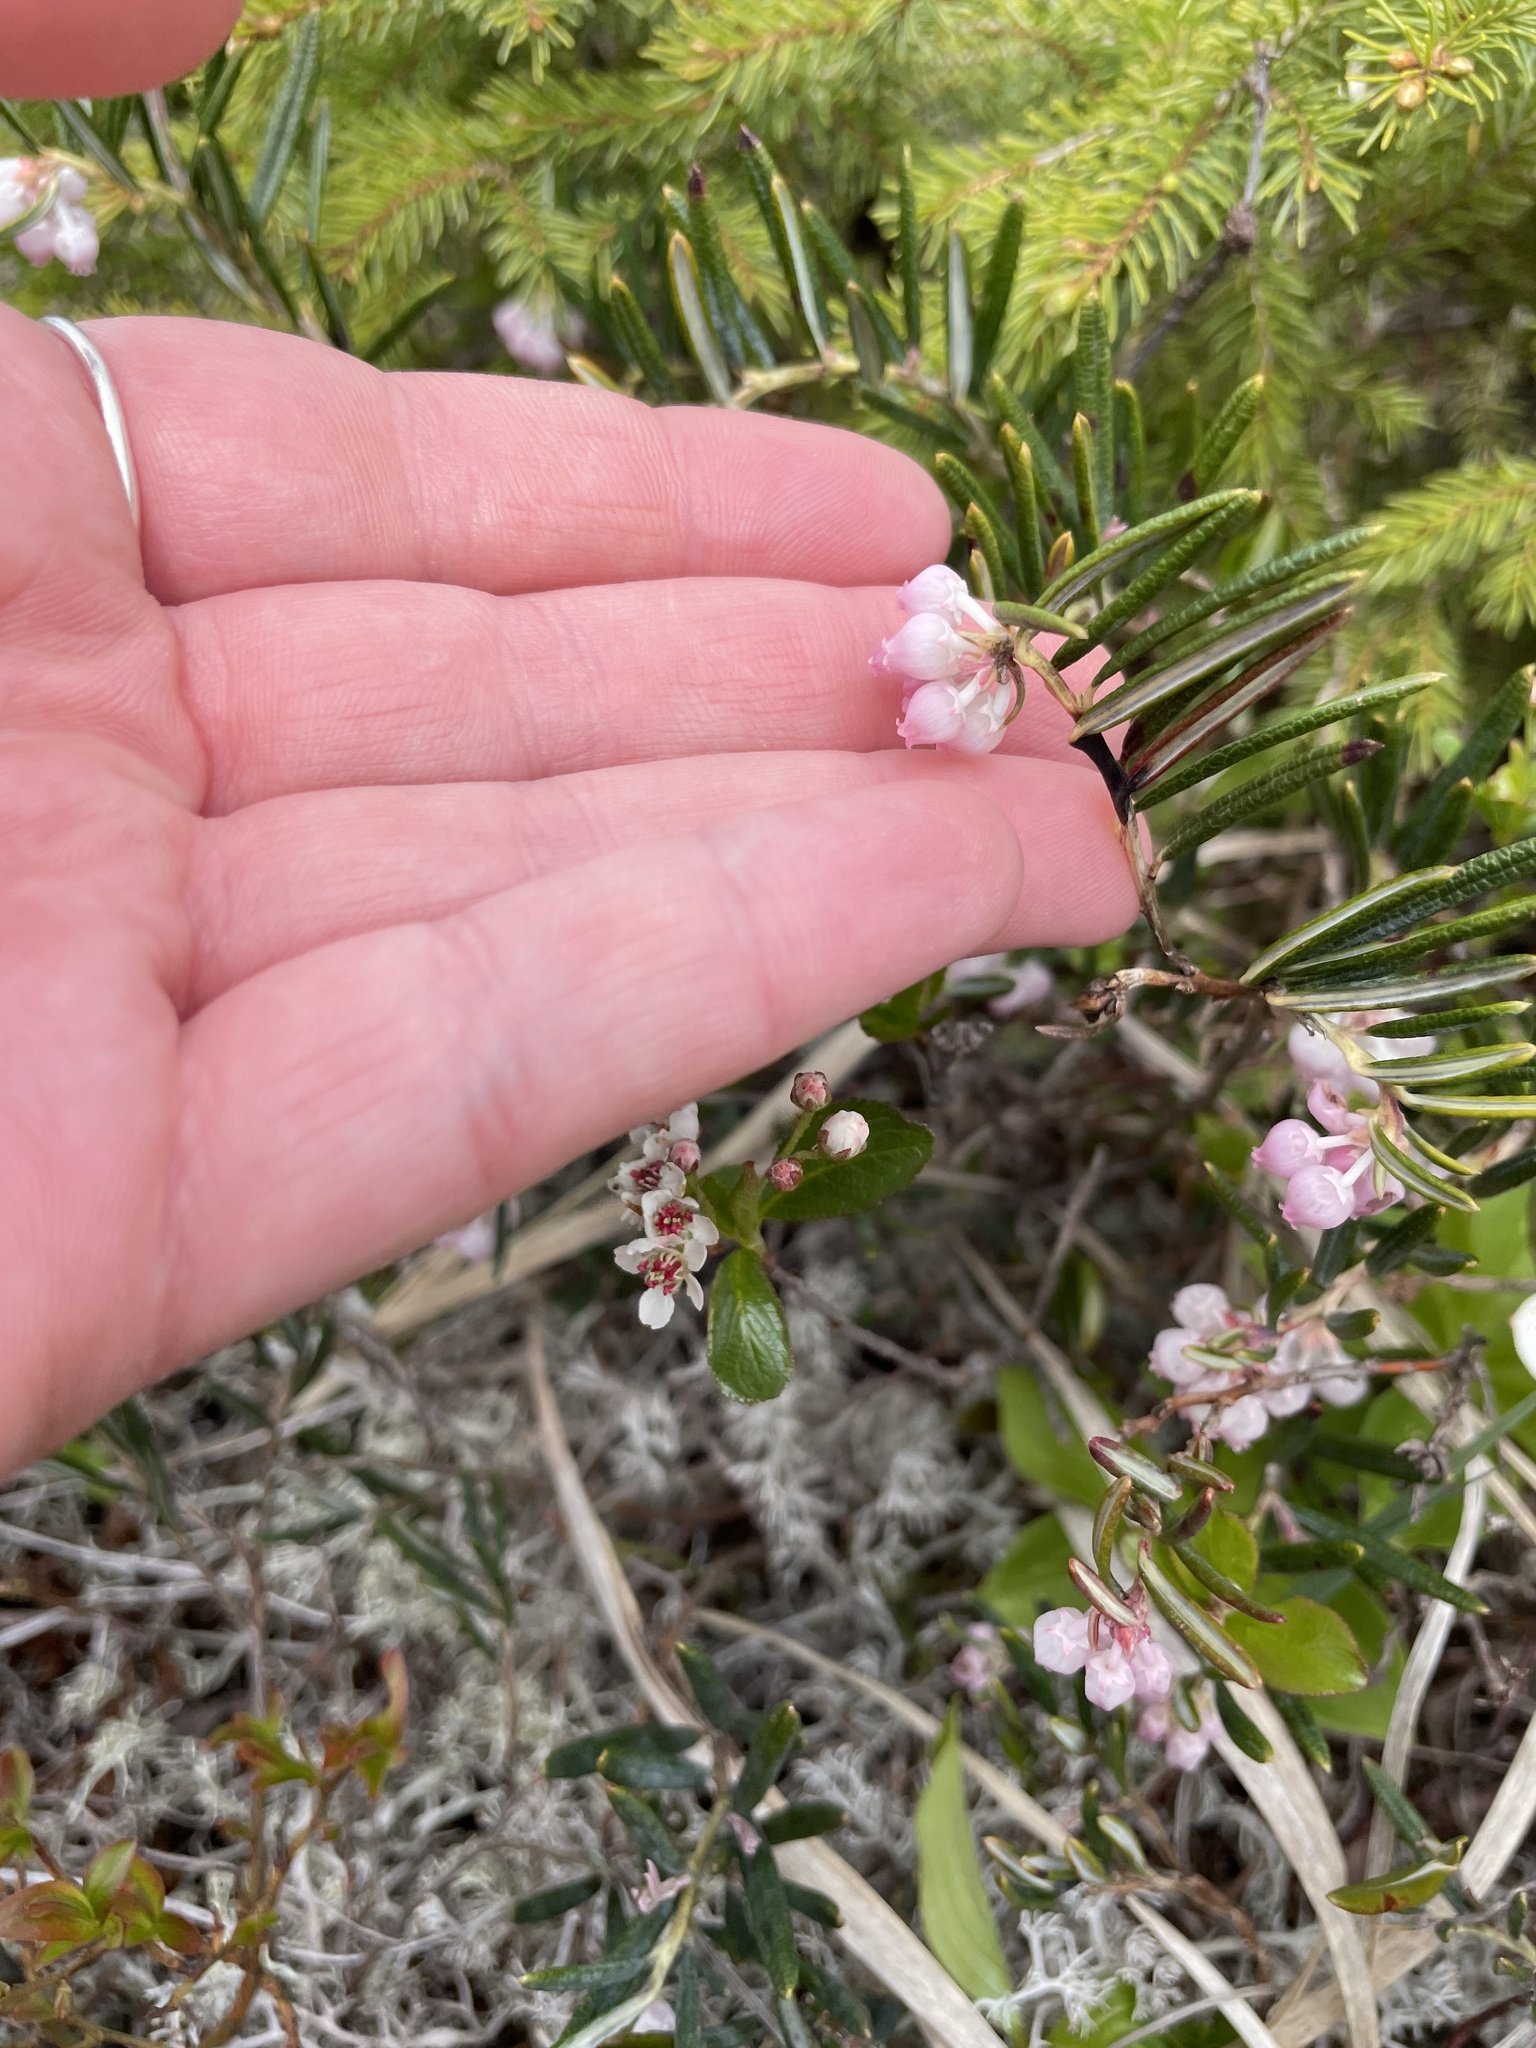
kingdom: Plantae
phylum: Tracheophyta
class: Magnoliopsida
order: Ericales
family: Ericaceae
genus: Andromeda
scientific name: Andromeda polifolia
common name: Bog-rosemary
